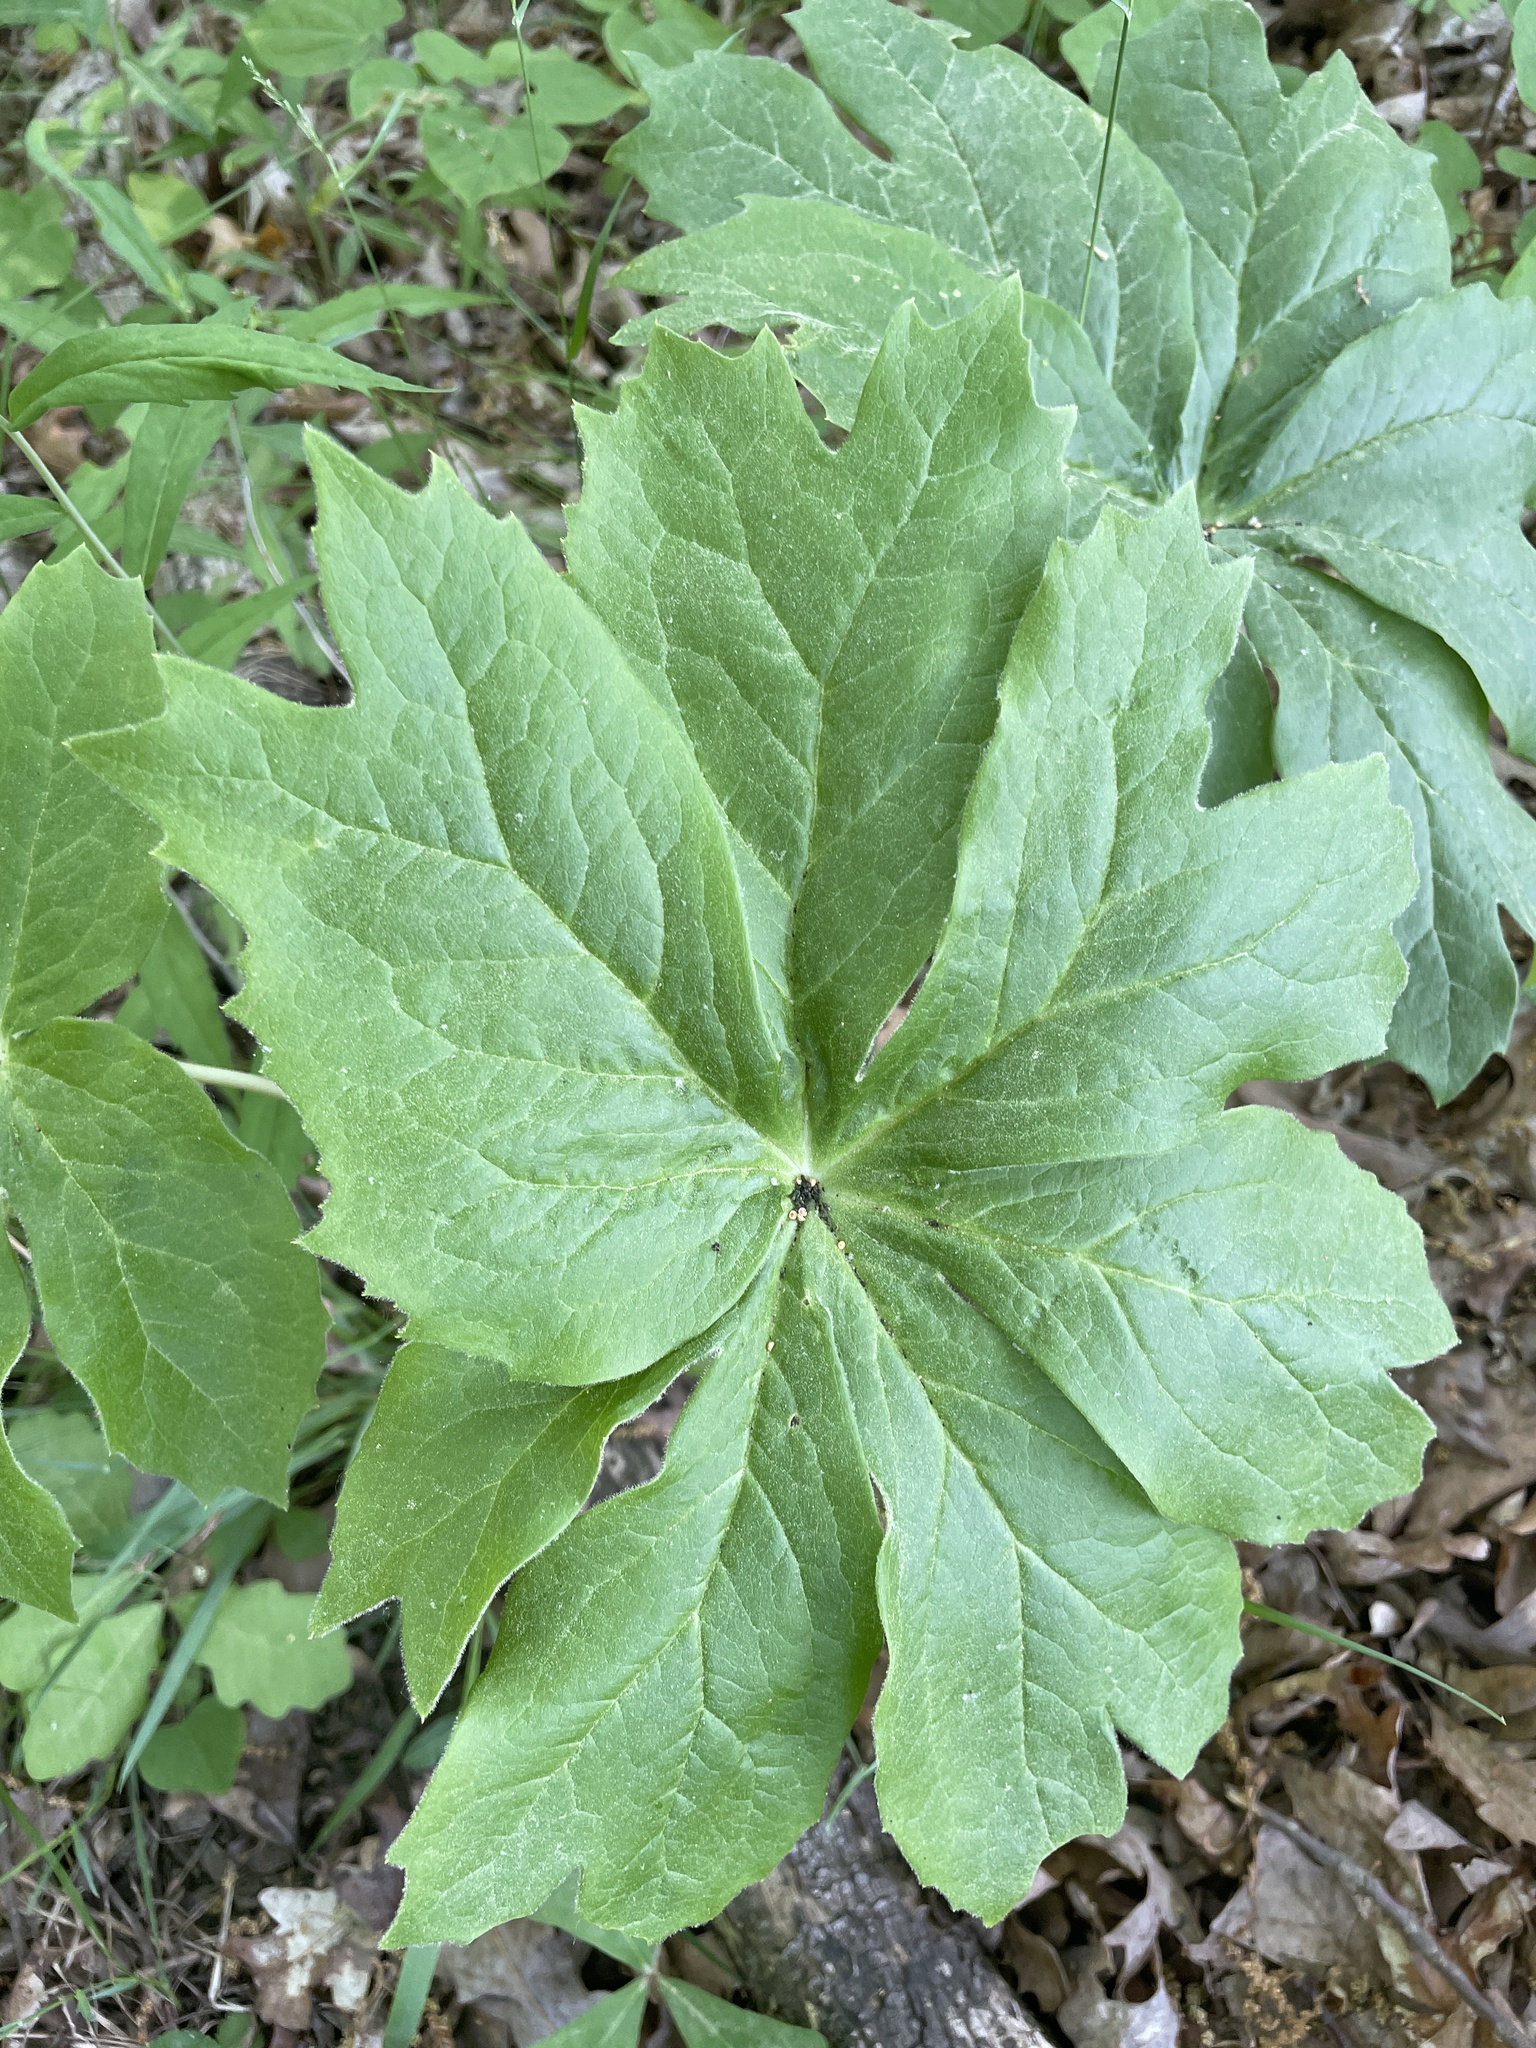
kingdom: Plantae
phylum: Tracheophyta
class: Magnoliopsida
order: Ranunculales
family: Berberidaceae
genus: Podophyllum
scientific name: Podophyllum peltatum
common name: Wild mandrake
